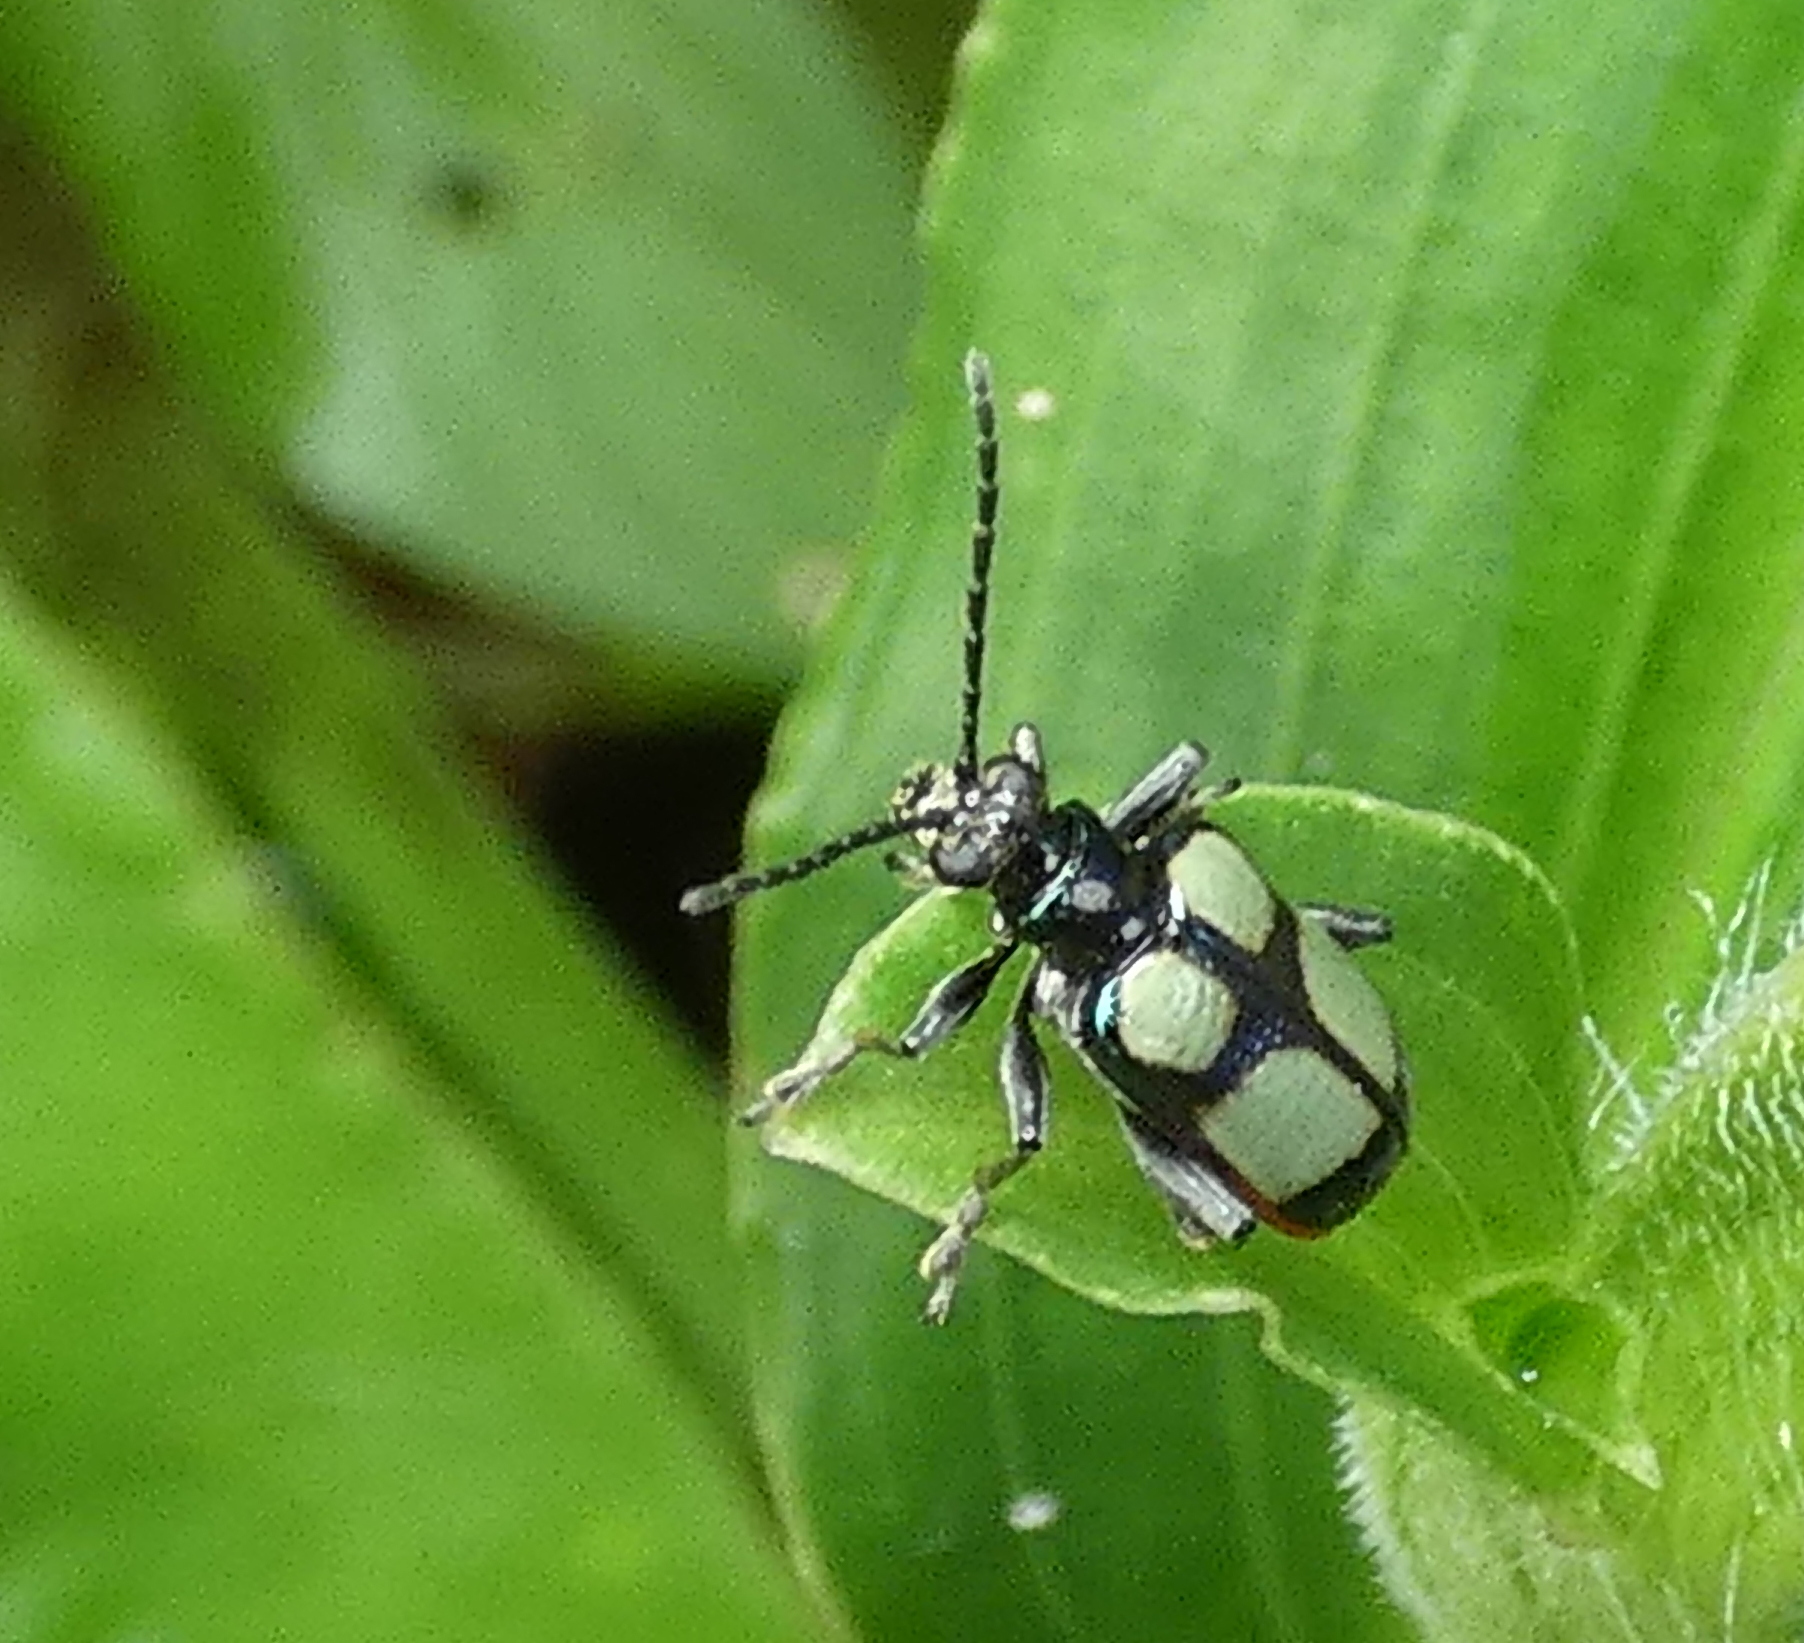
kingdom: Animalia
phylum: Arthropoda
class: Insecta
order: Coleoptera
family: Chrysomelidae
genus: Neolema
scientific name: Neolema
